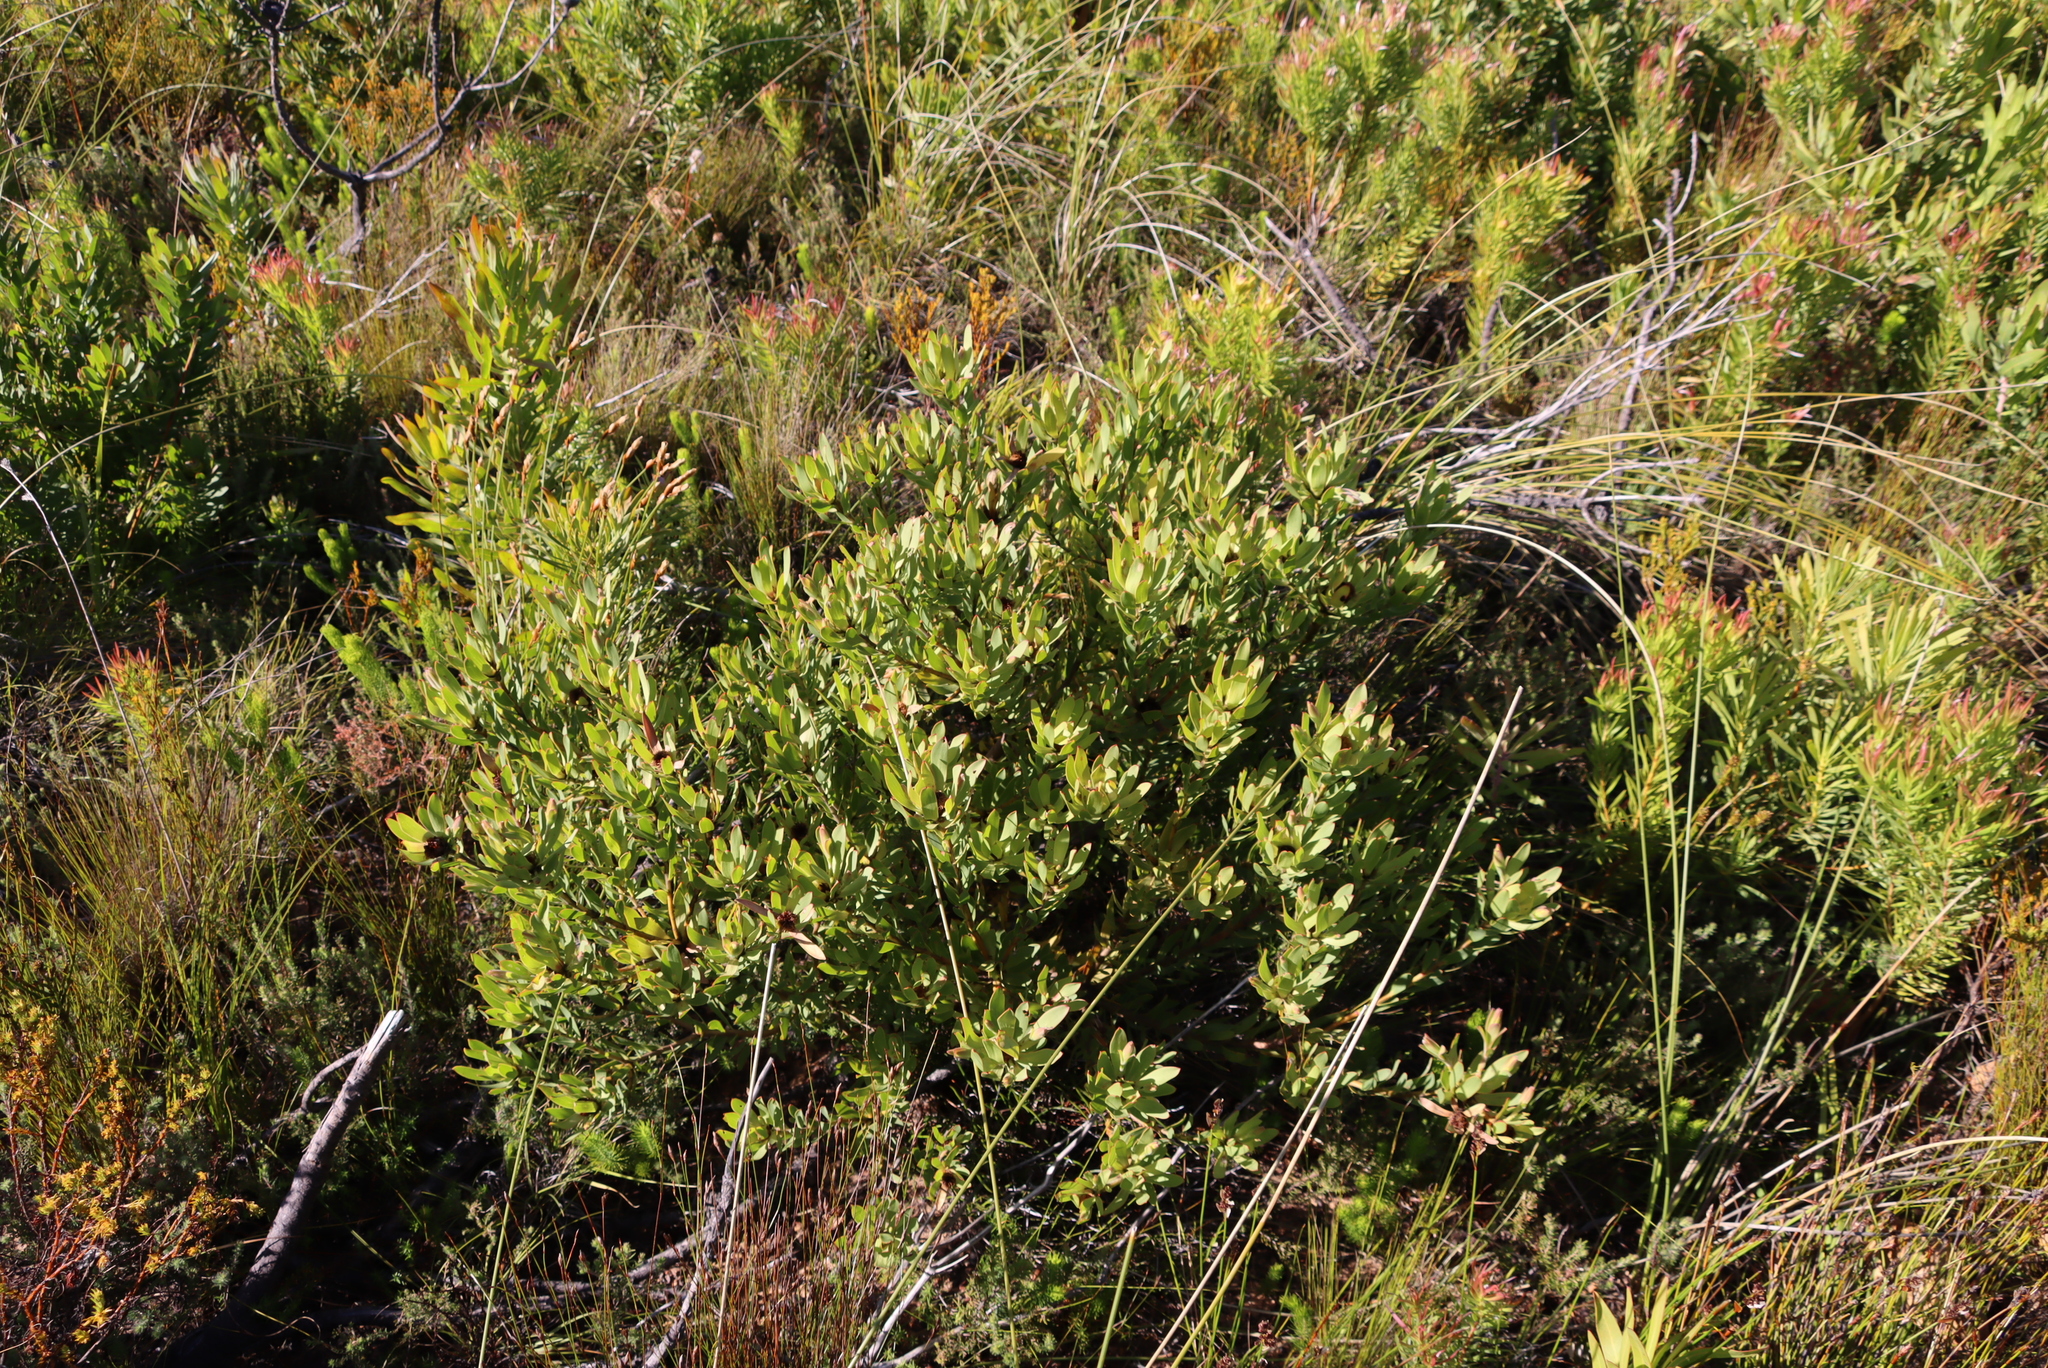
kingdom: Plantae
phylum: Tracheophyta
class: Magnoliopsida
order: Proteales
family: Proteaceae
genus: Leucadendron
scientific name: Leucadendron sessile
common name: Western sunbush
